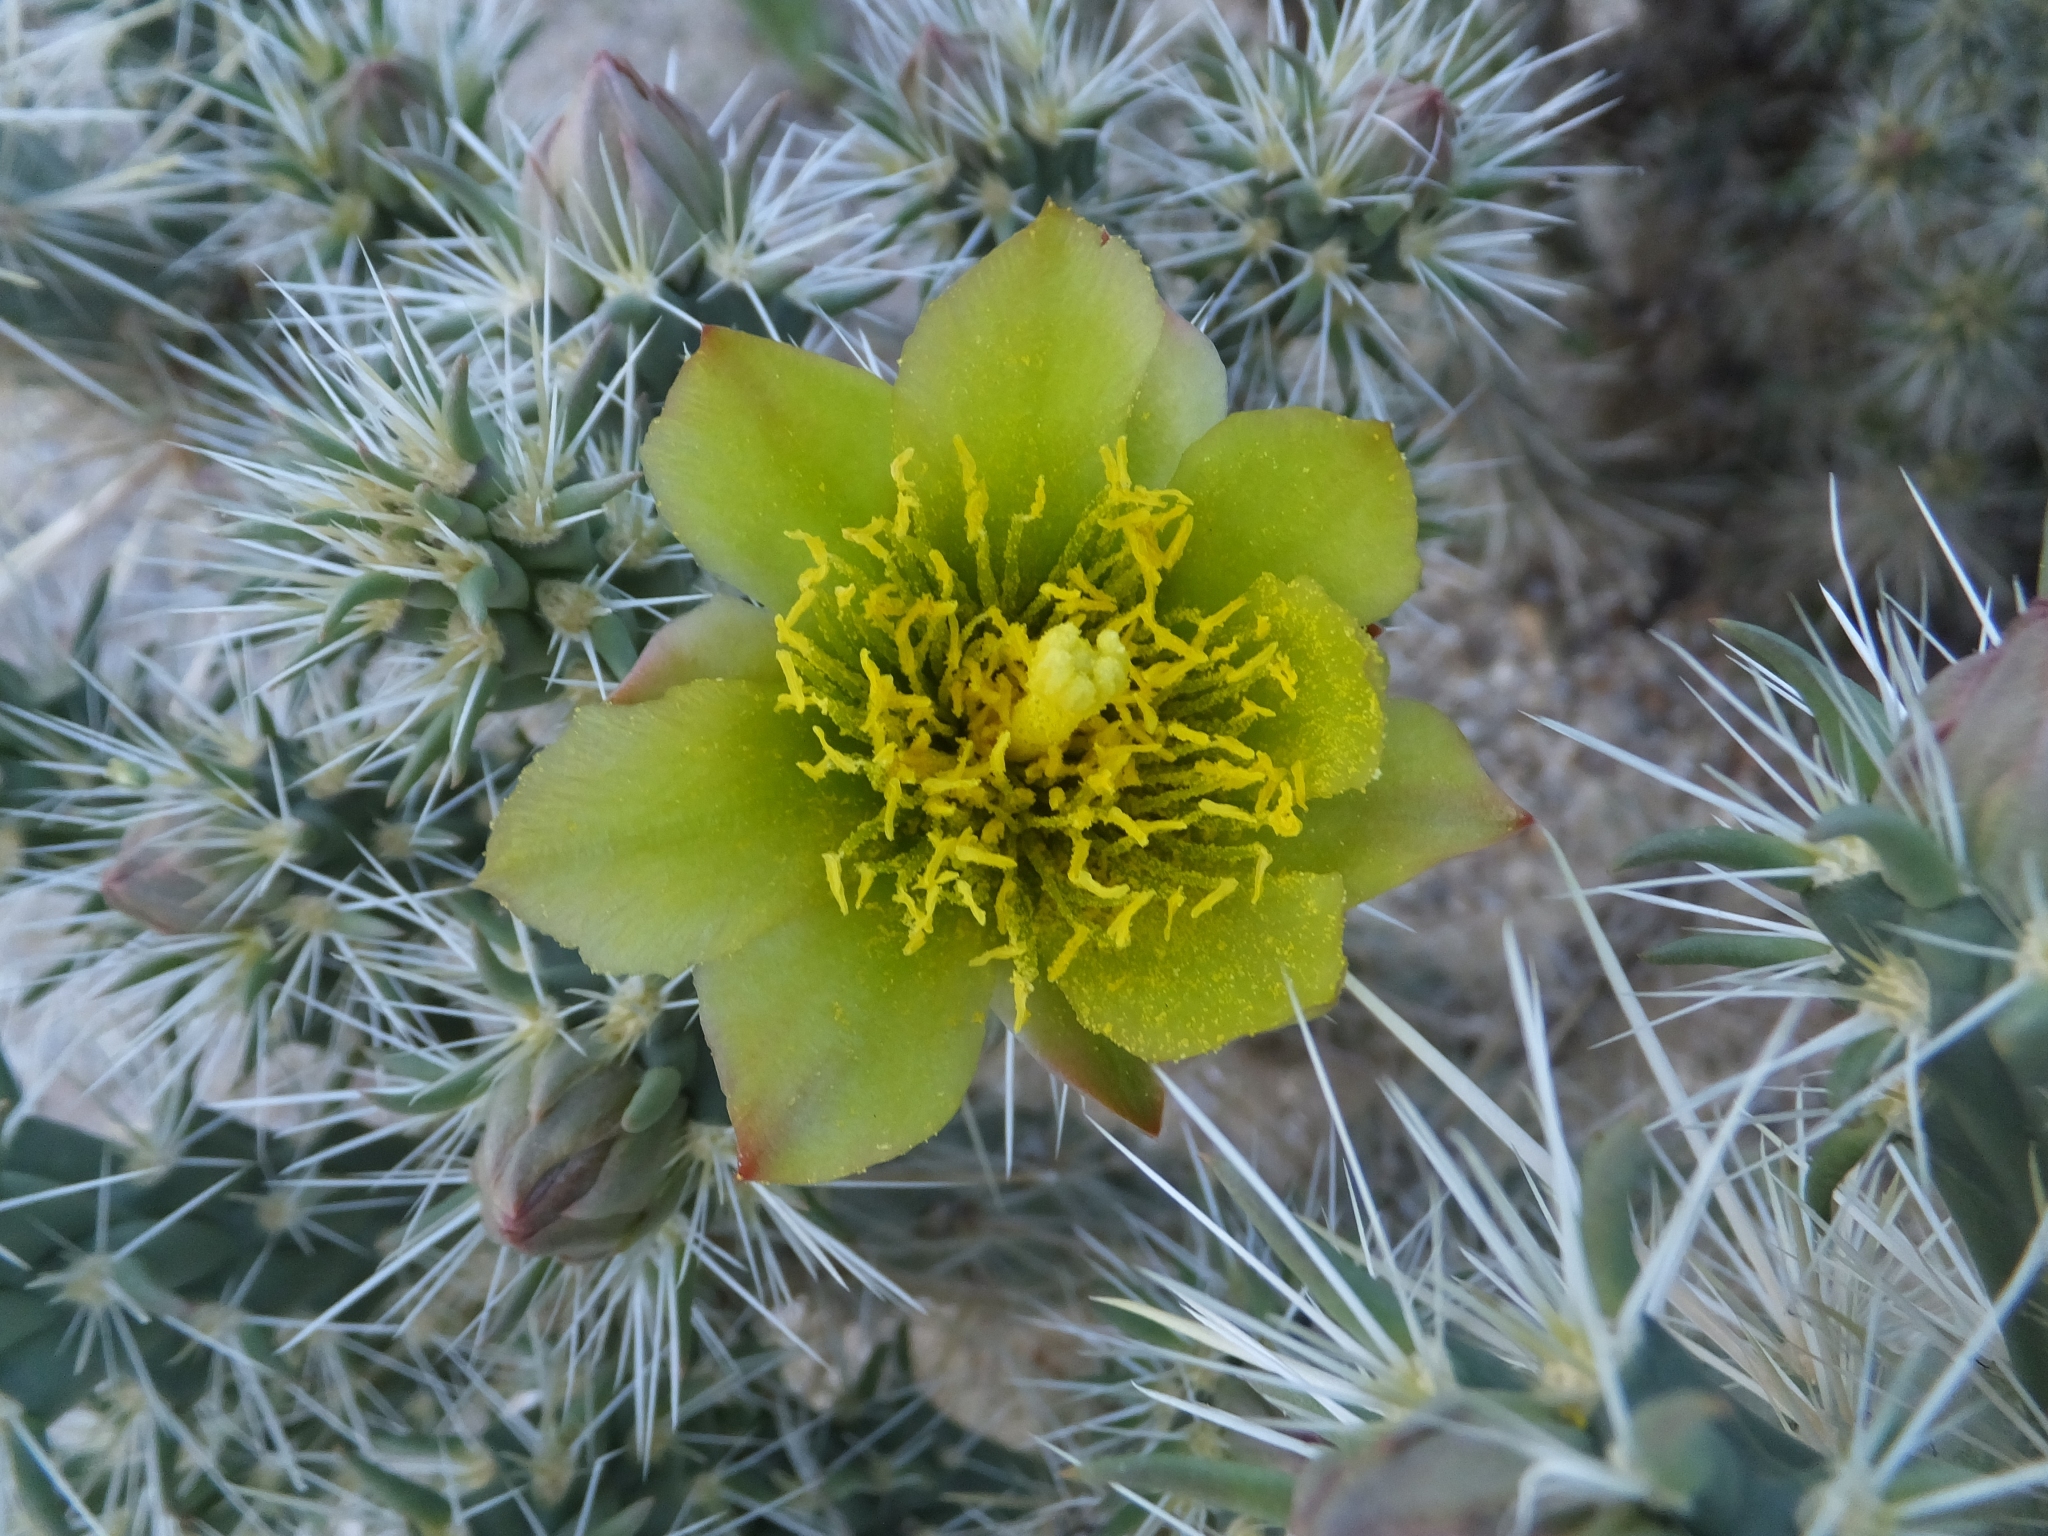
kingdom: Plantae
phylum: Tracheophyta
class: Magnoliopsida
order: Caryophyllales
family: Cactaceae
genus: Cylindropuntia
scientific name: Cylindropuntia echinocarpa
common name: Ground cholla
